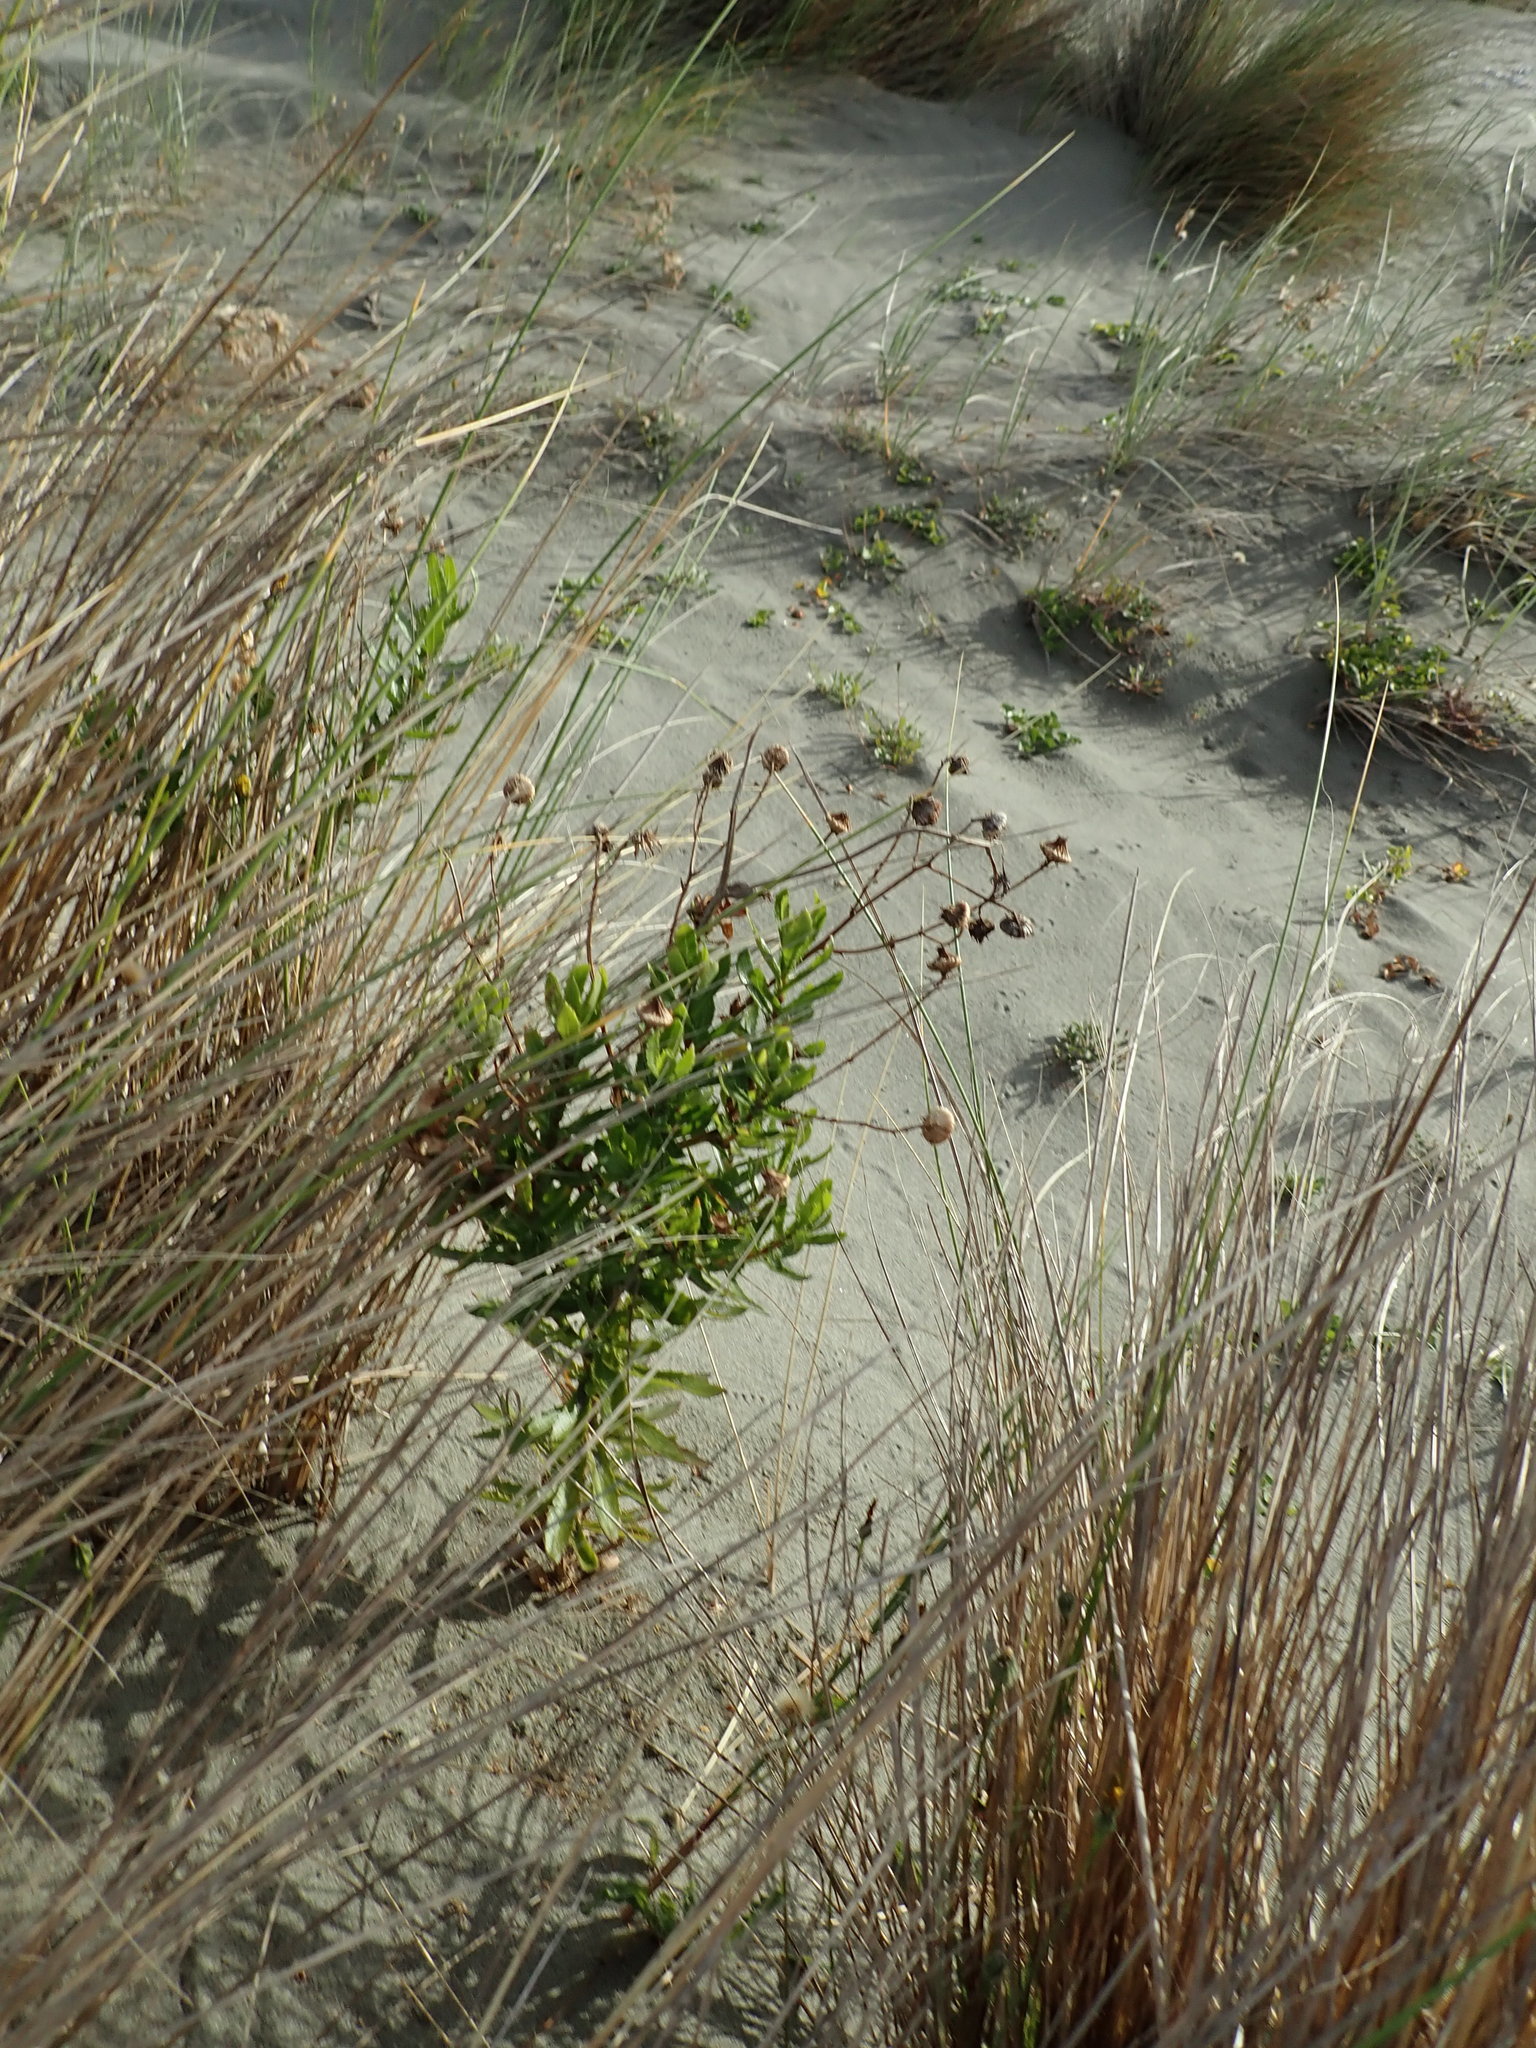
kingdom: Plantae
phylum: Tracheophyta
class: Magnoliopsida
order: Asterales
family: Asteraceae
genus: Senecio
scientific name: Senecio glastifolius
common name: Woad-leaved ragwort
